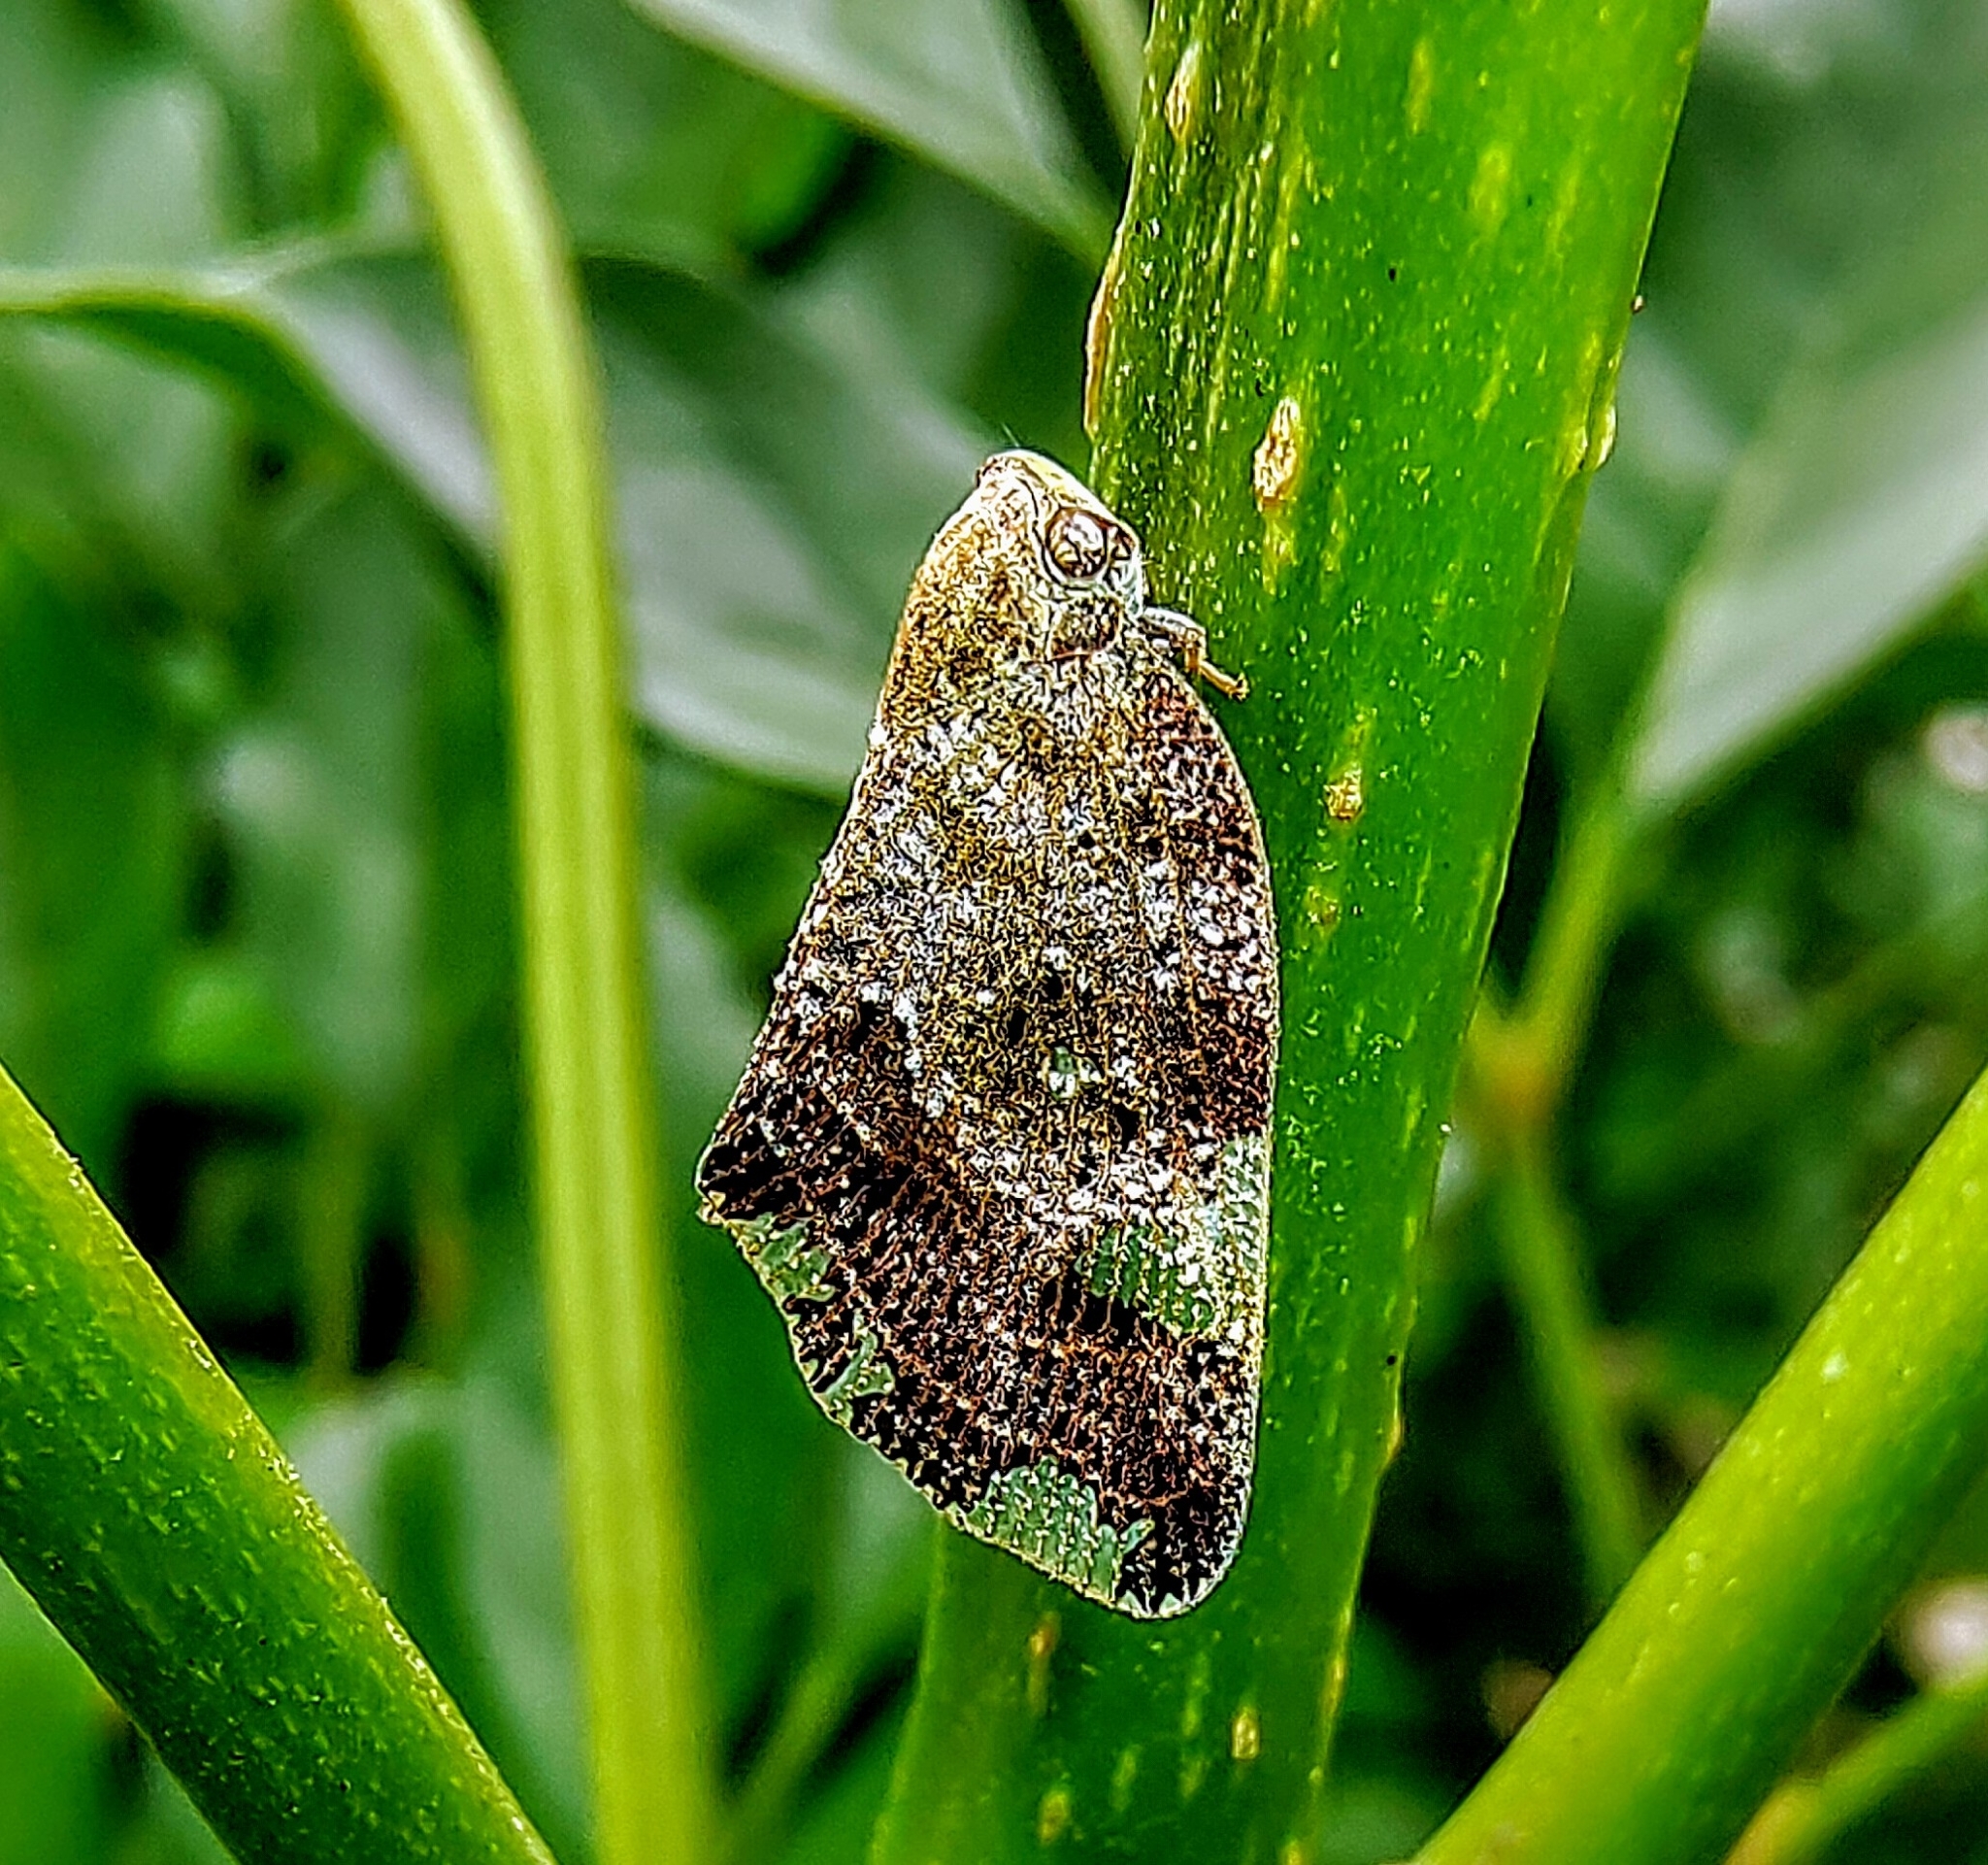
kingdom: Animalia
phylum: Arthropoda
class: Insecta
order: Hemiptera
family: Ricaniidae
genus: Ricania
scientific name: Ricania speculum
